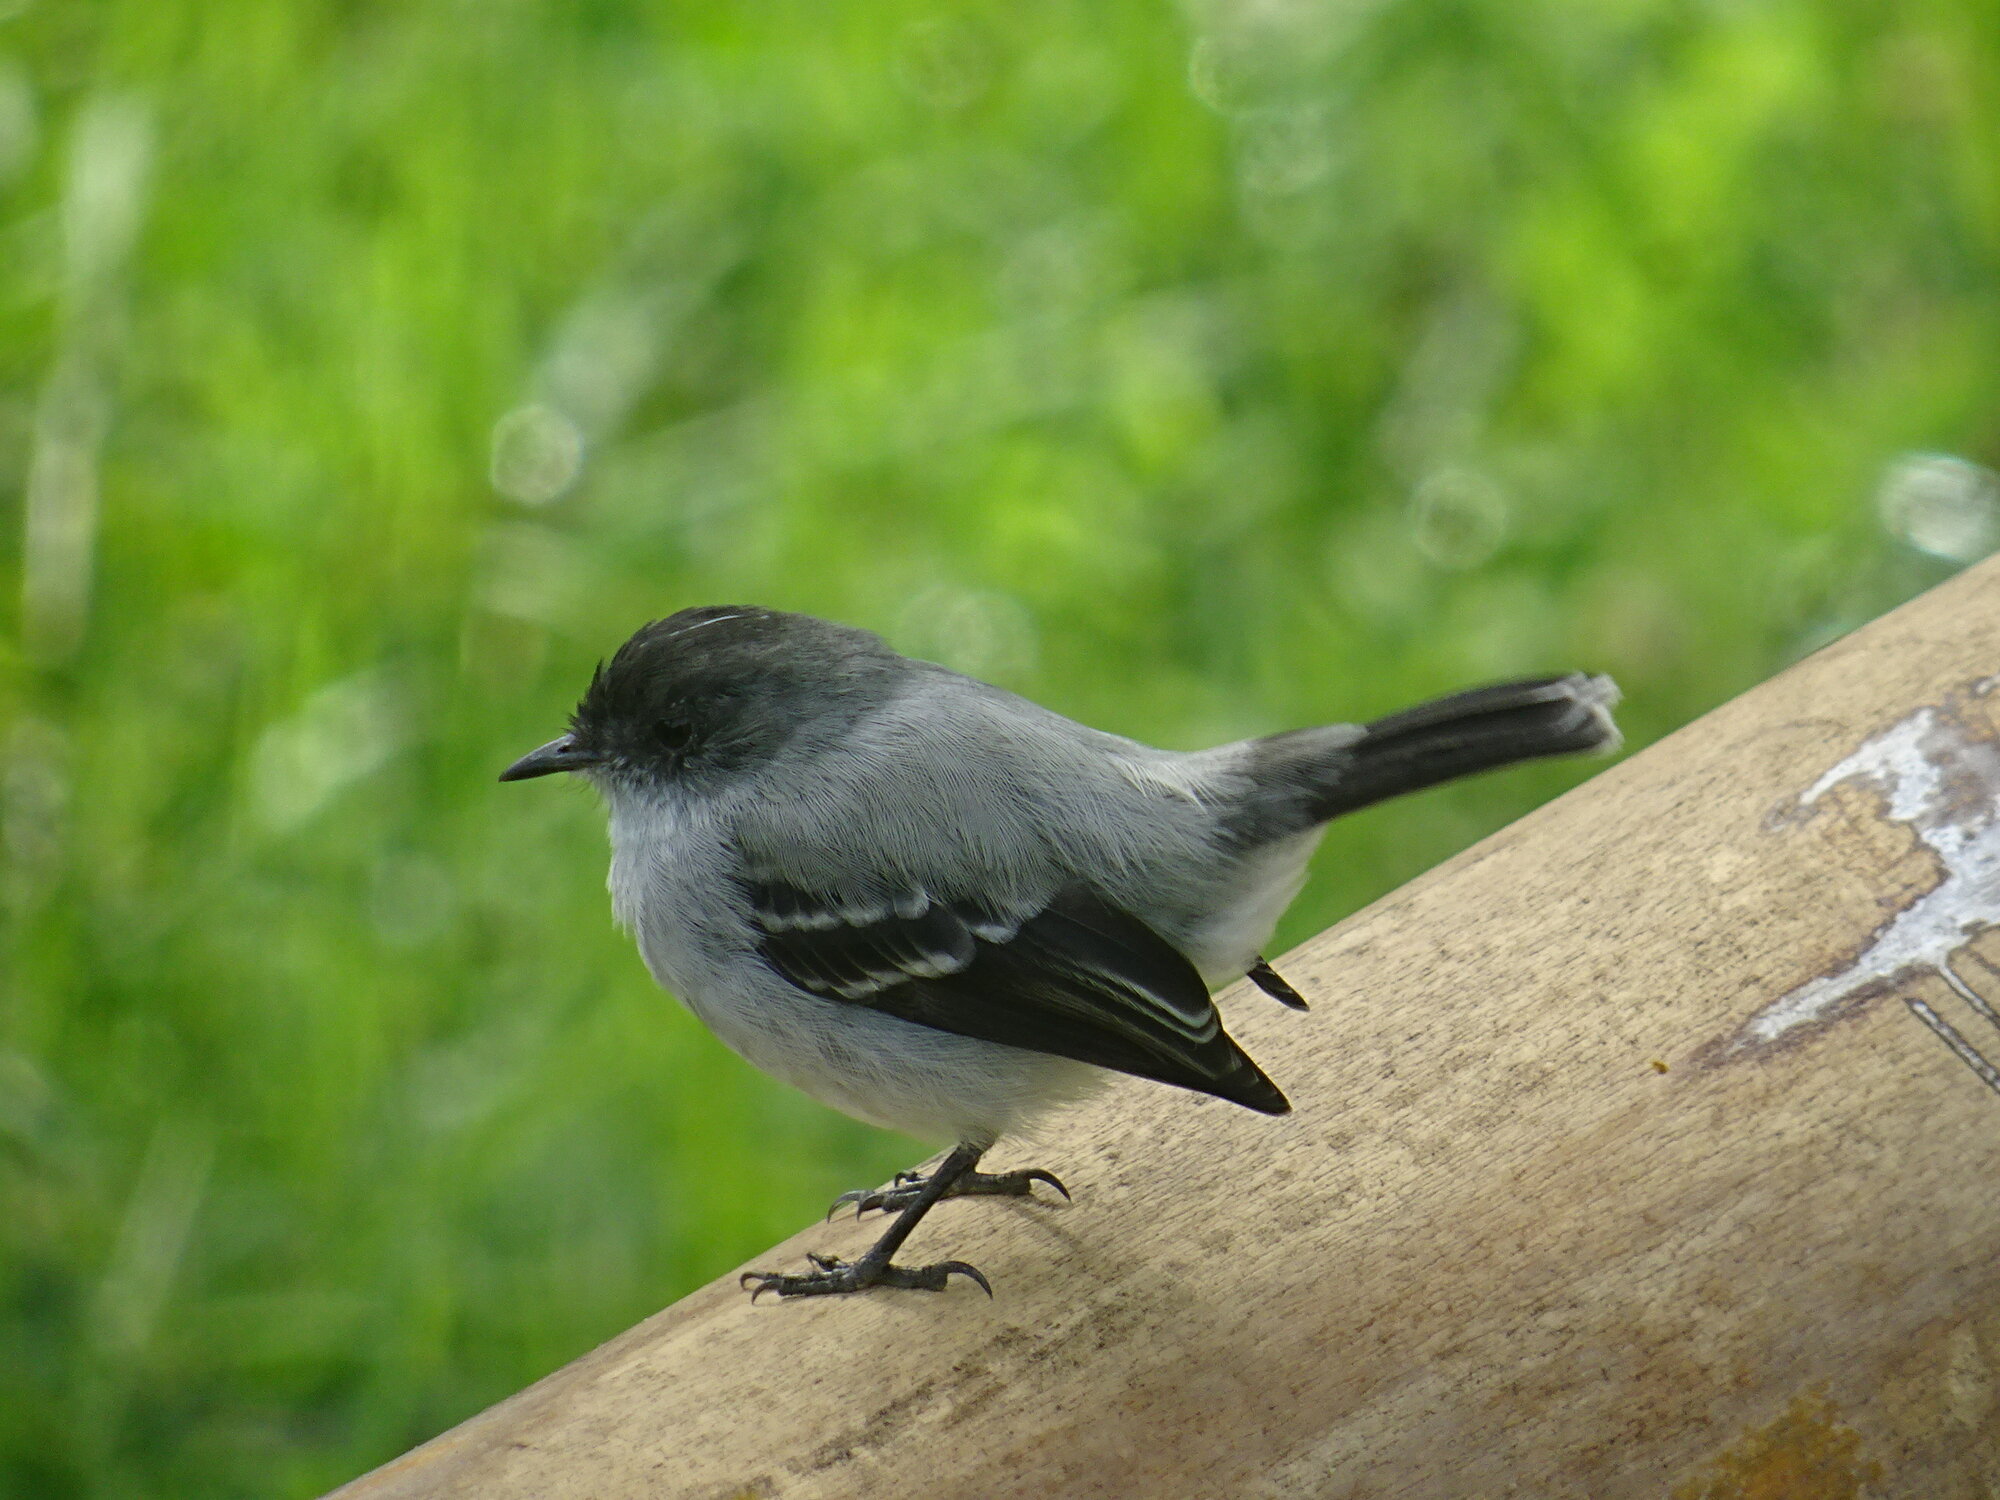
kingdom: Animalia
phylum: Chordata
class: Aves
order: Passeriformes
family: Tyrannidae
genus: Serpophaga
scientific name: Serpophaga cinerea
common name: Torrent tyrannulet
